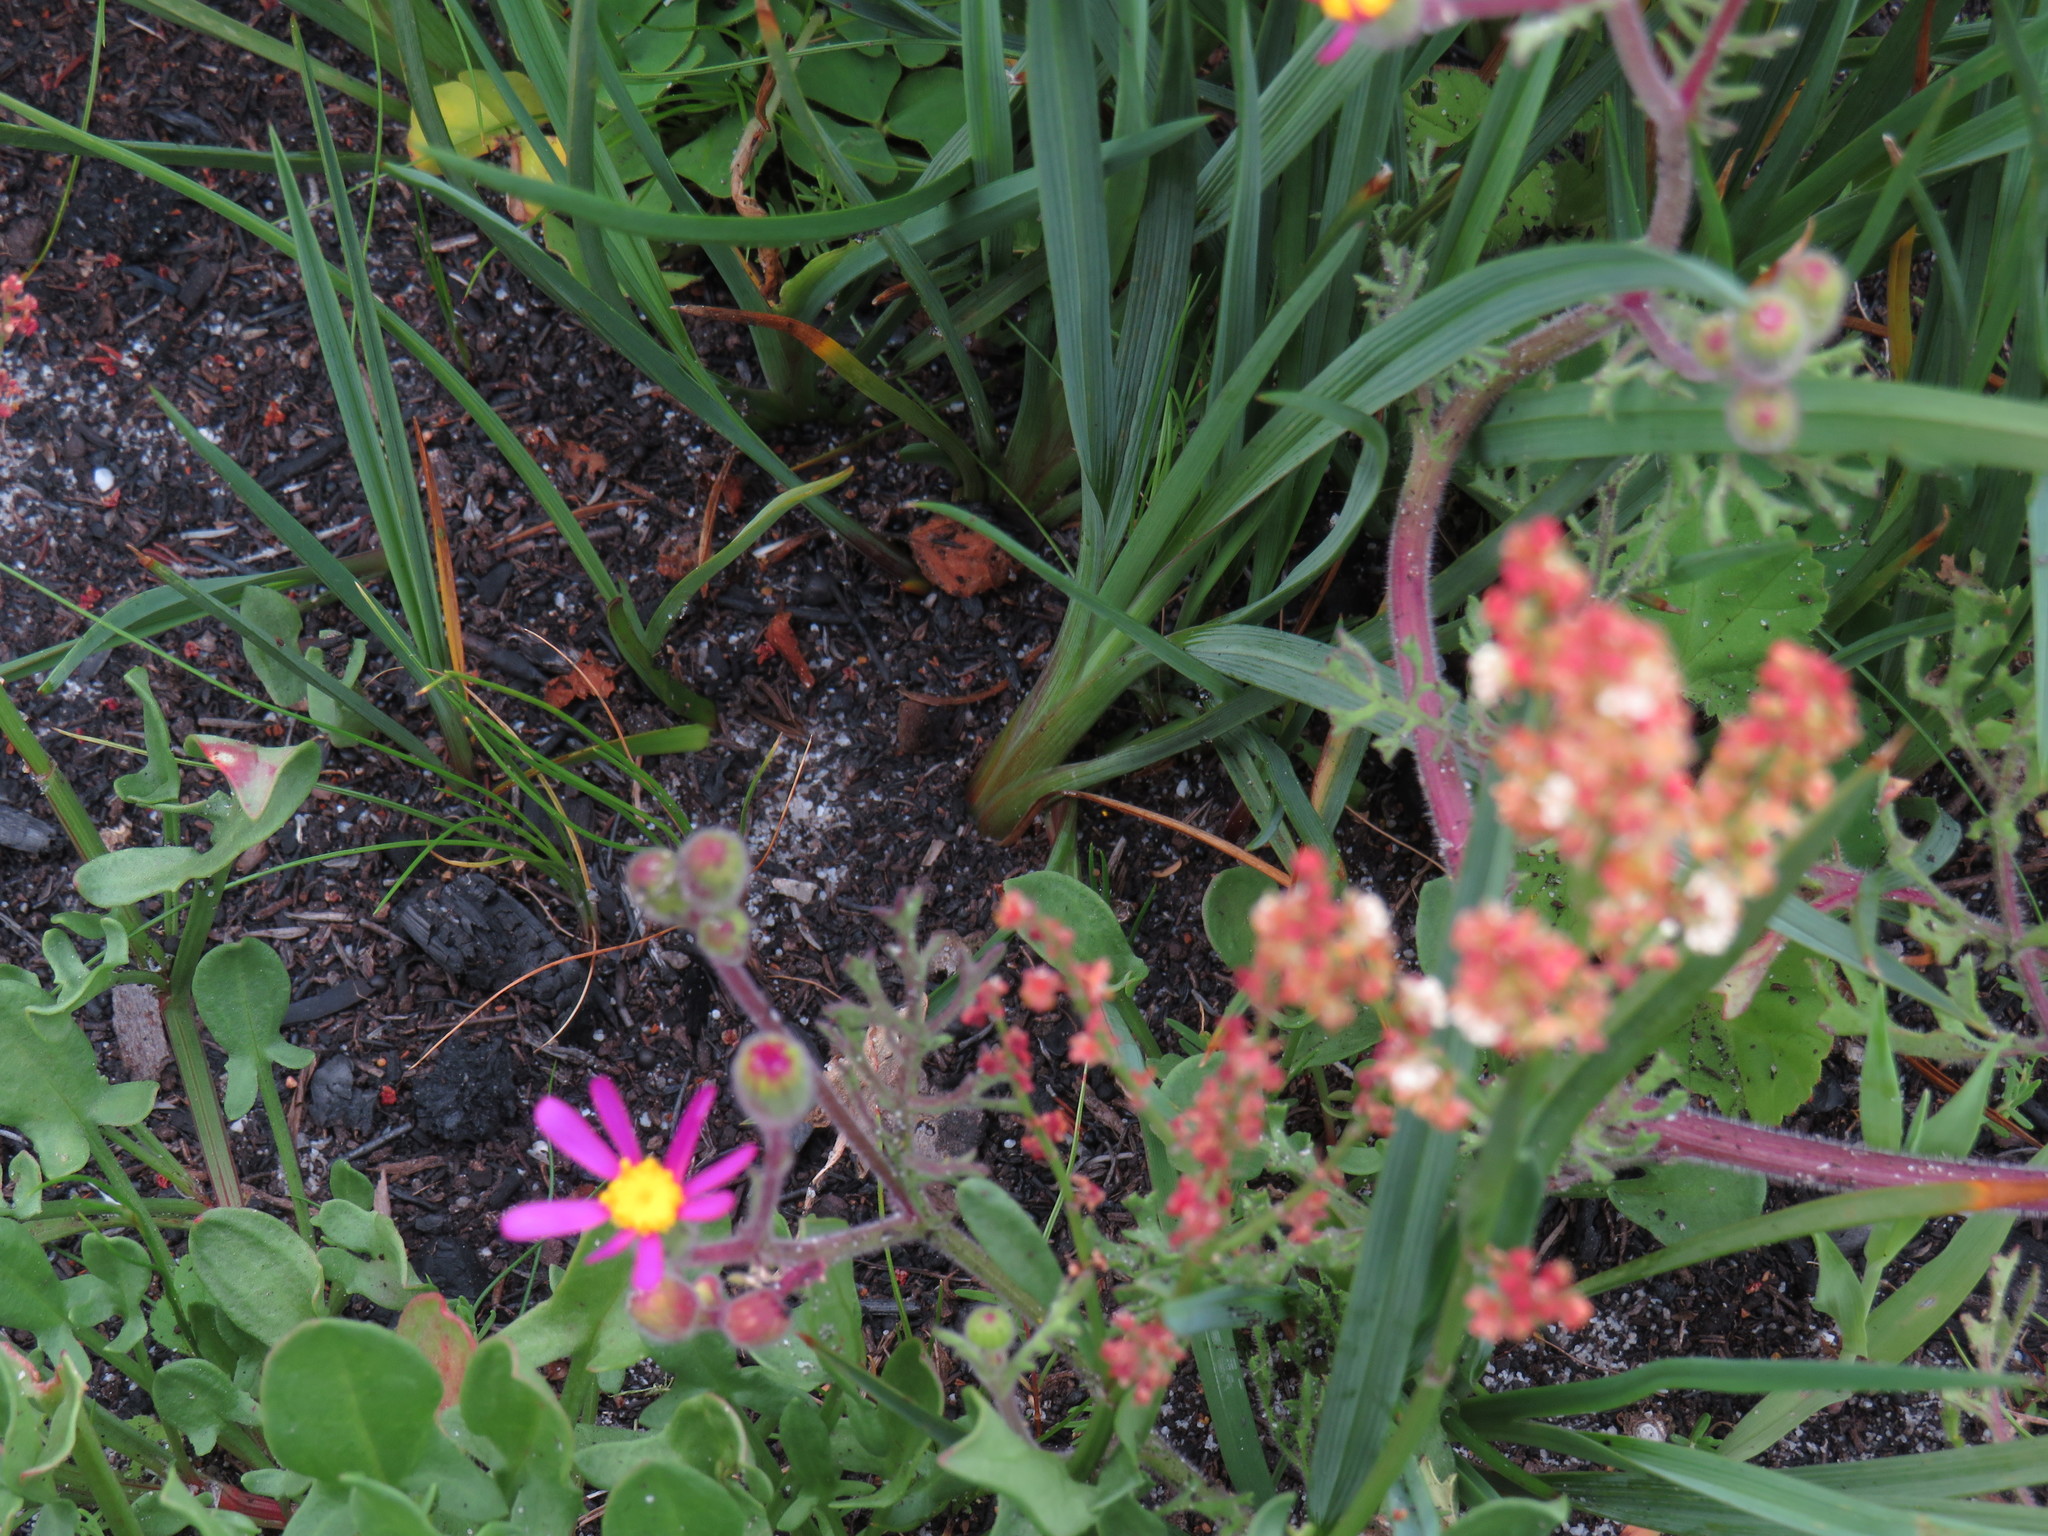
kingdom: Plantae
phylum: Tracheophyta
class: Liliopsida
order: Asparagales
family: Asphodelaceae
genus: Caesia
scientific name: Caesia contorta
